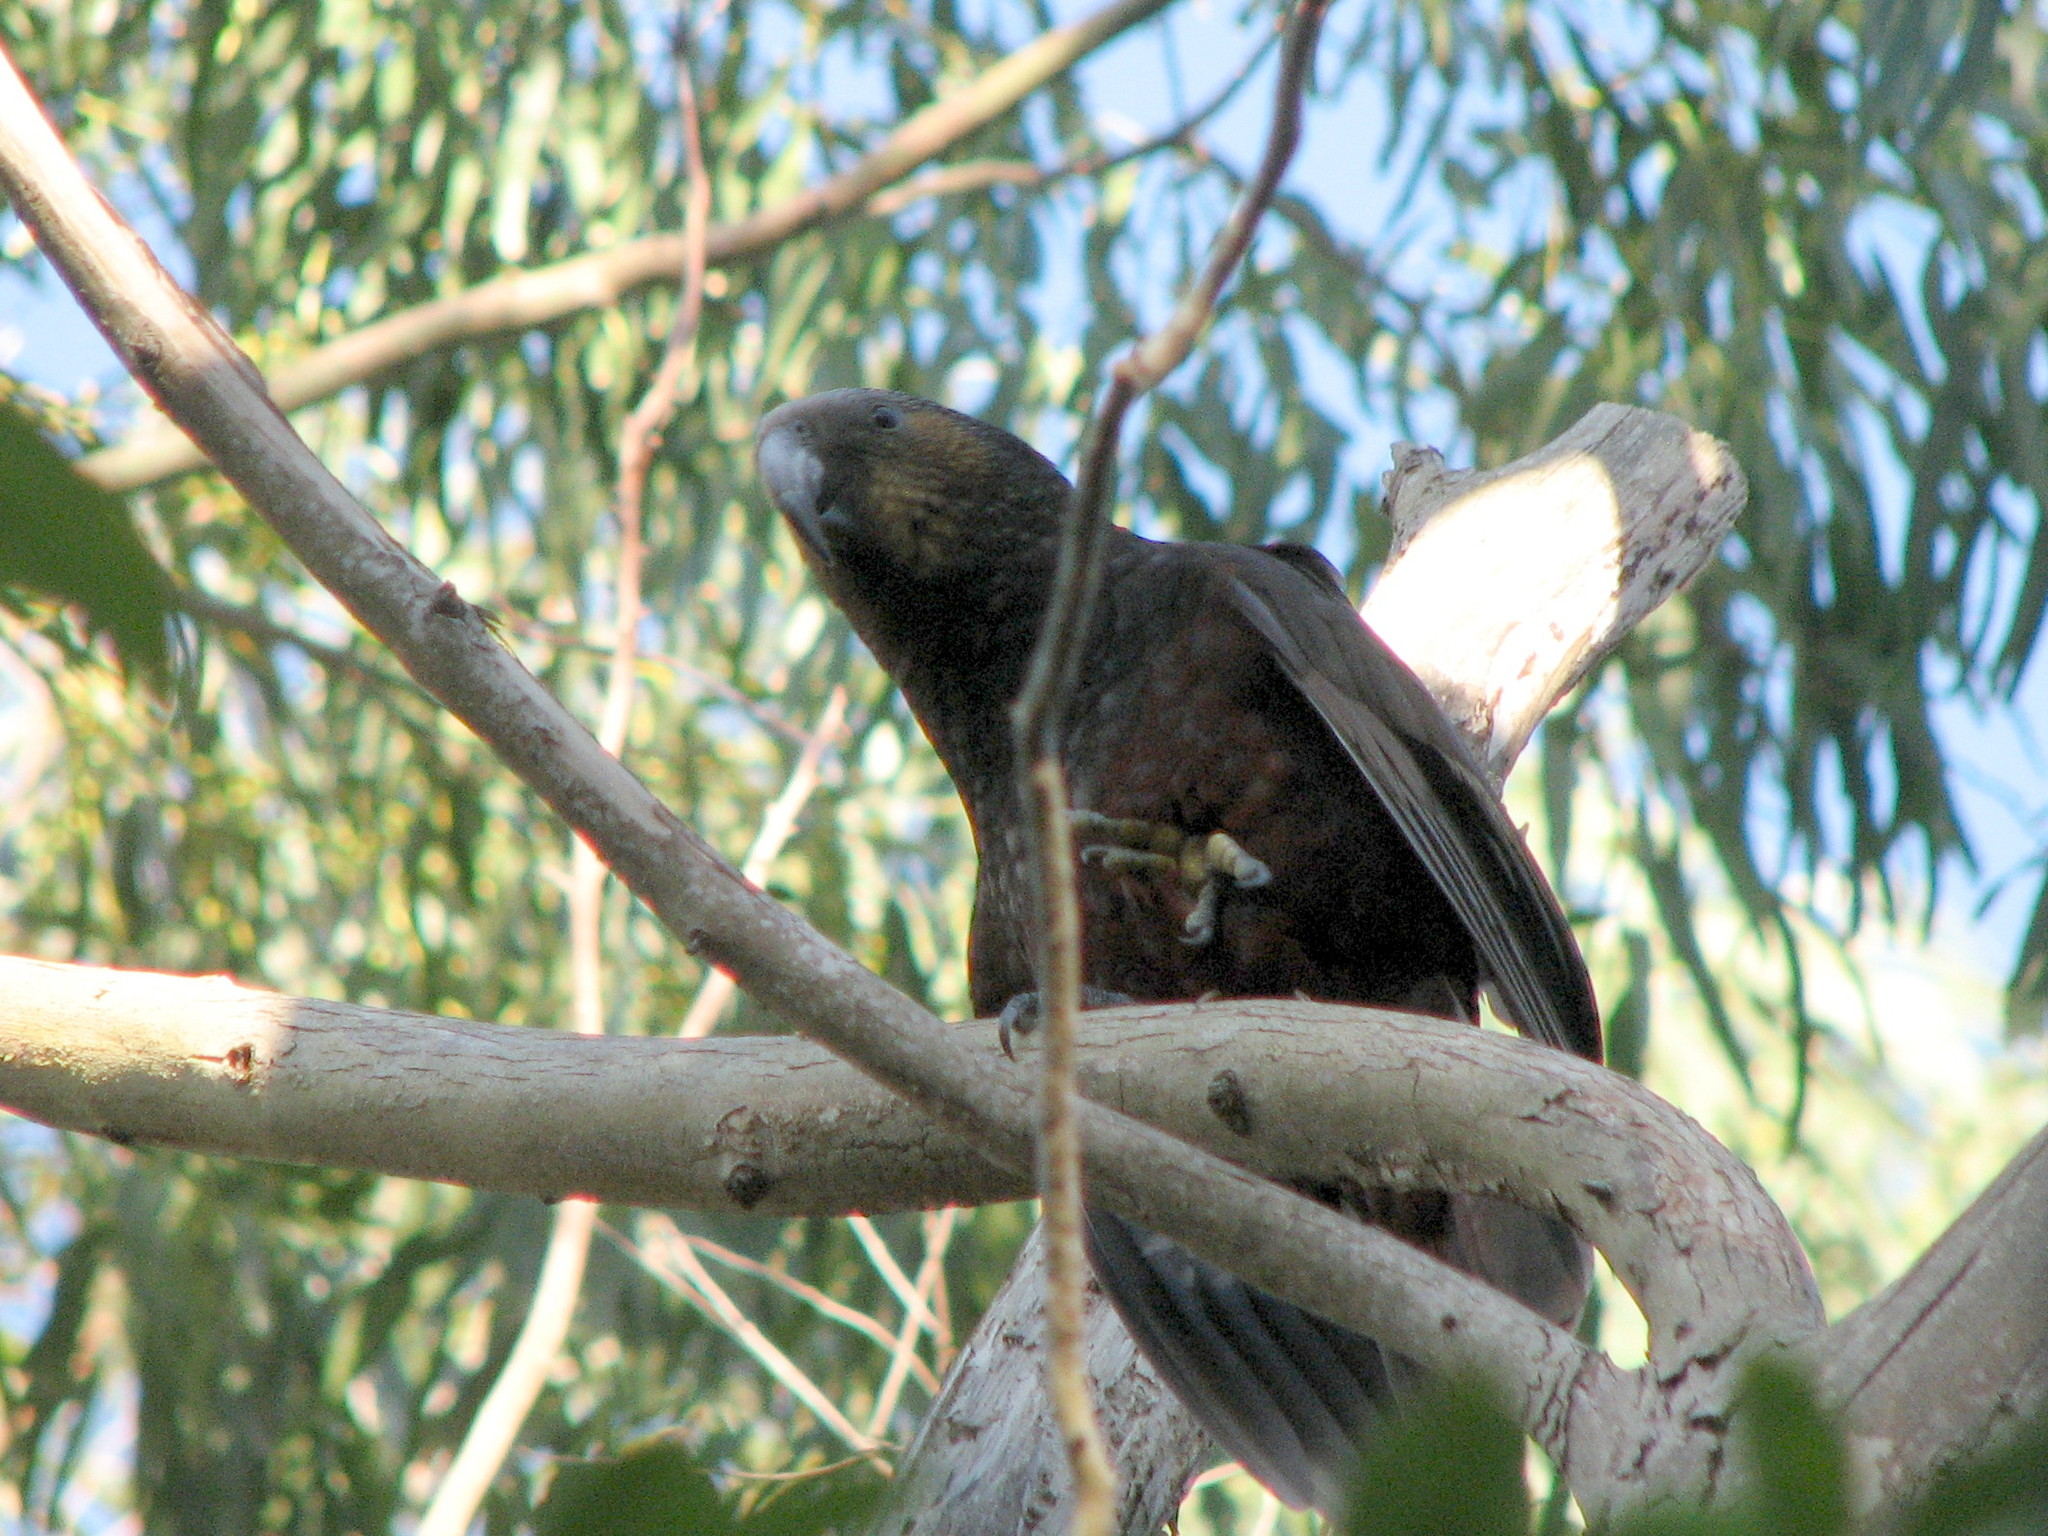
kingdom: Animalia
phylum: Chordata
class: Aves
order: Psittaciformes
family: Psittacidae
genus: Nestor
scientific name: Nestor meridionalis
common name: New zealand kaka
